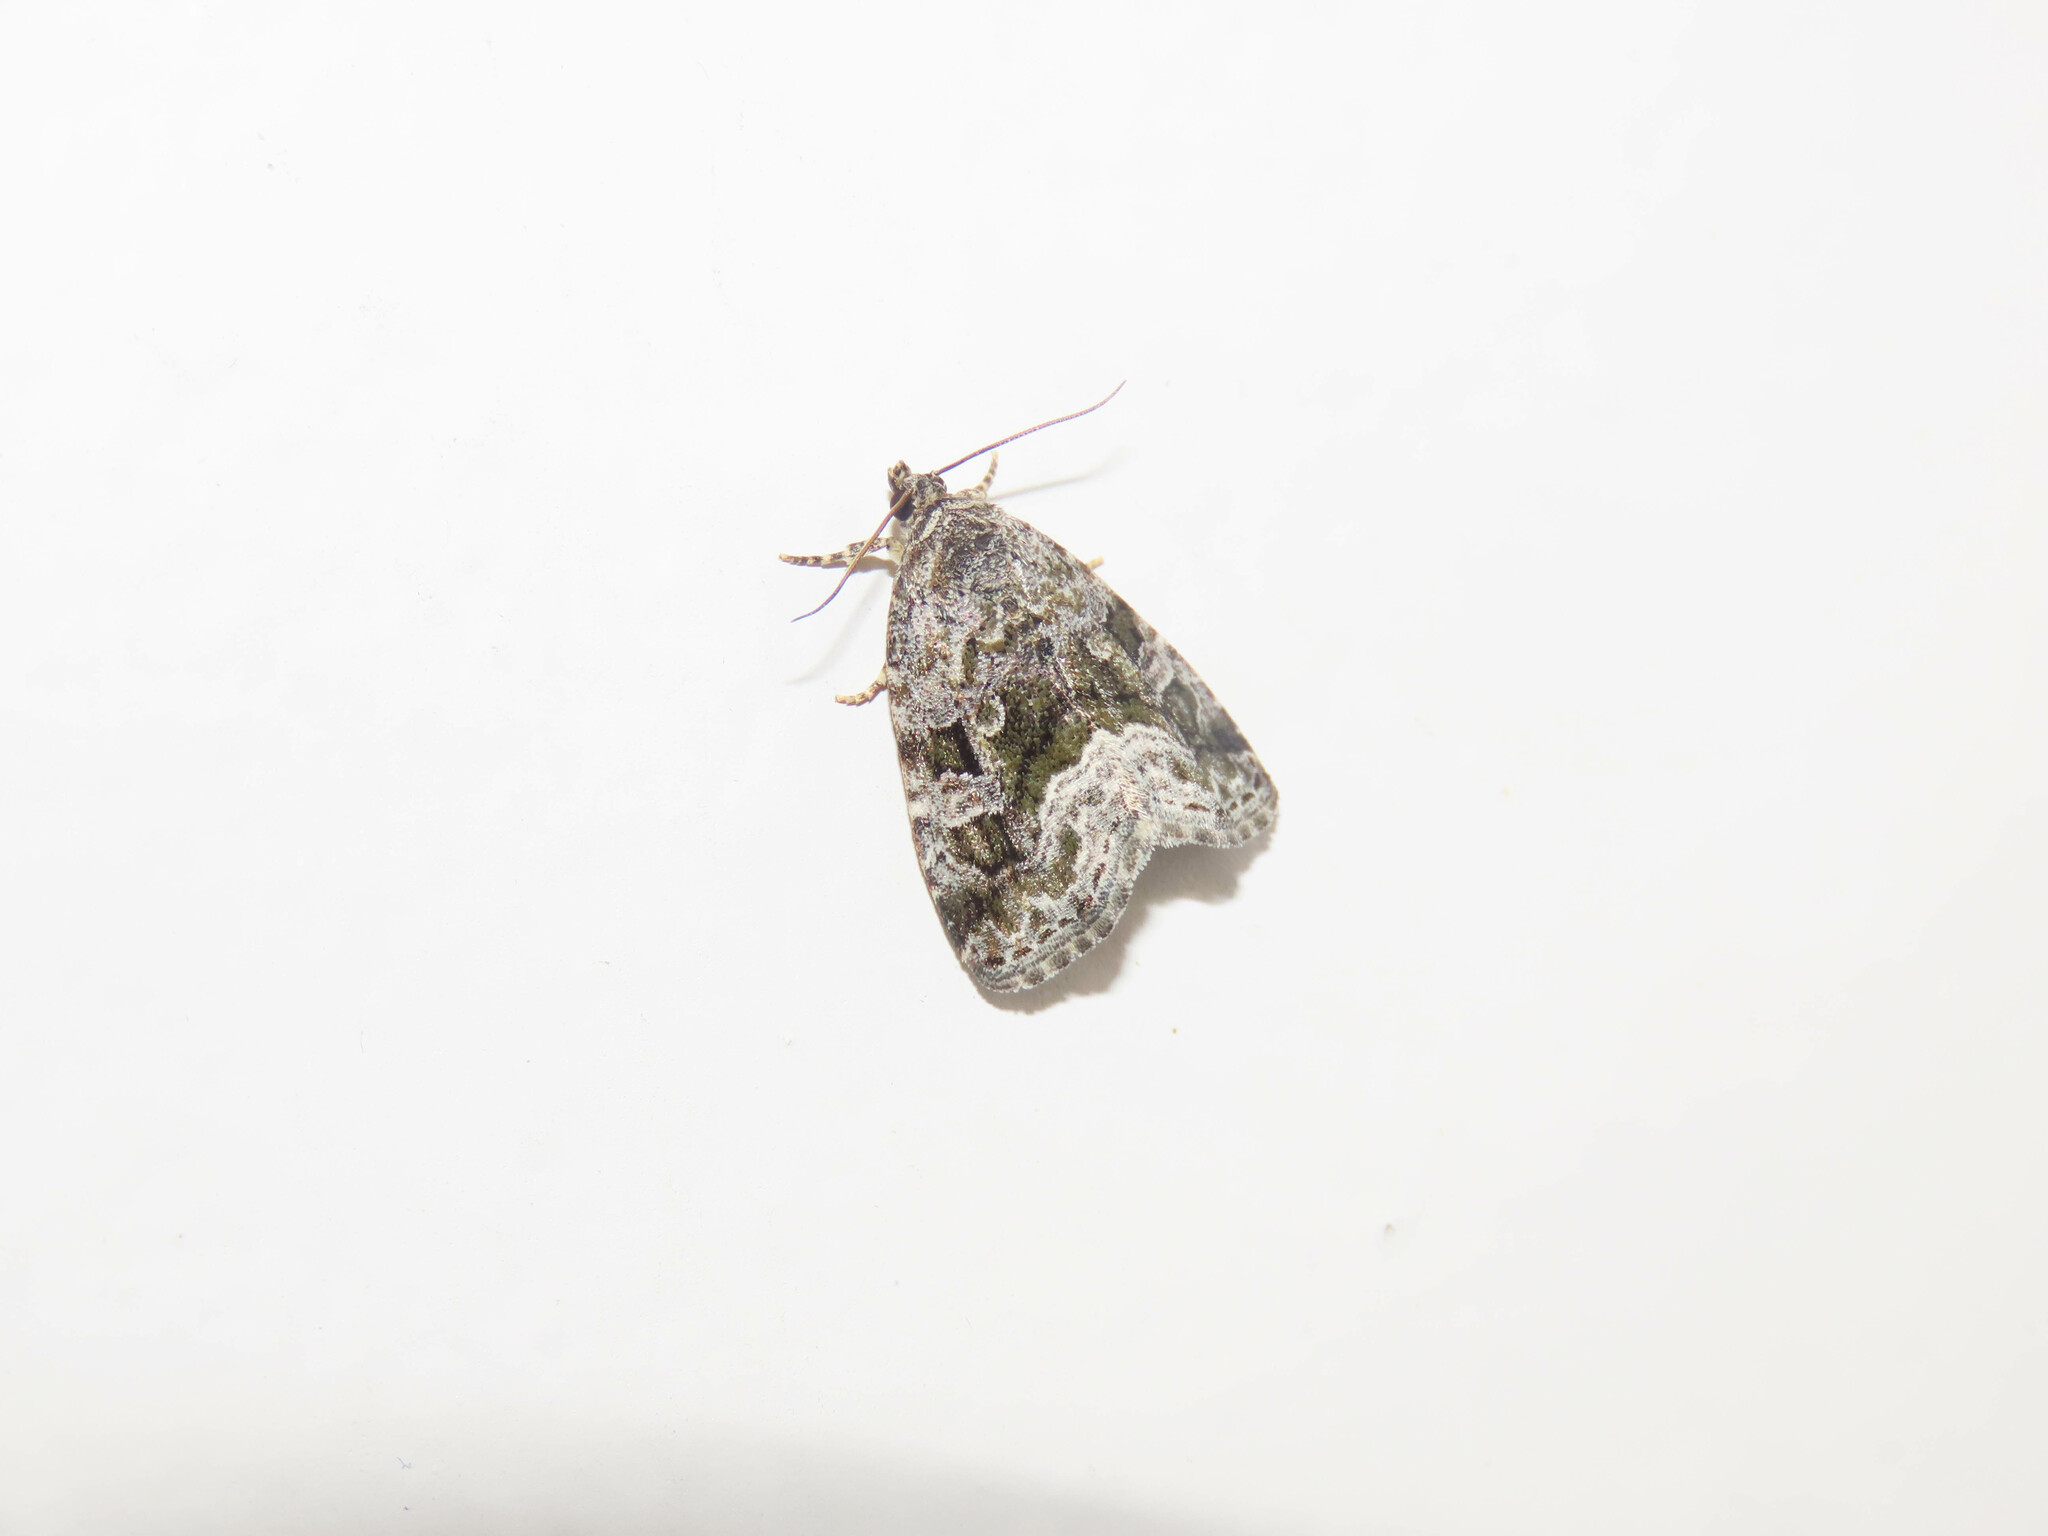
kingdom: Animalia
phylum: Arthropoda
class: Insecta
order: Lepidoptera
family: Noctuidae
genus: Protodeltote
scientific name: Protodeltote muscosula
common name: Large mossy glyph
